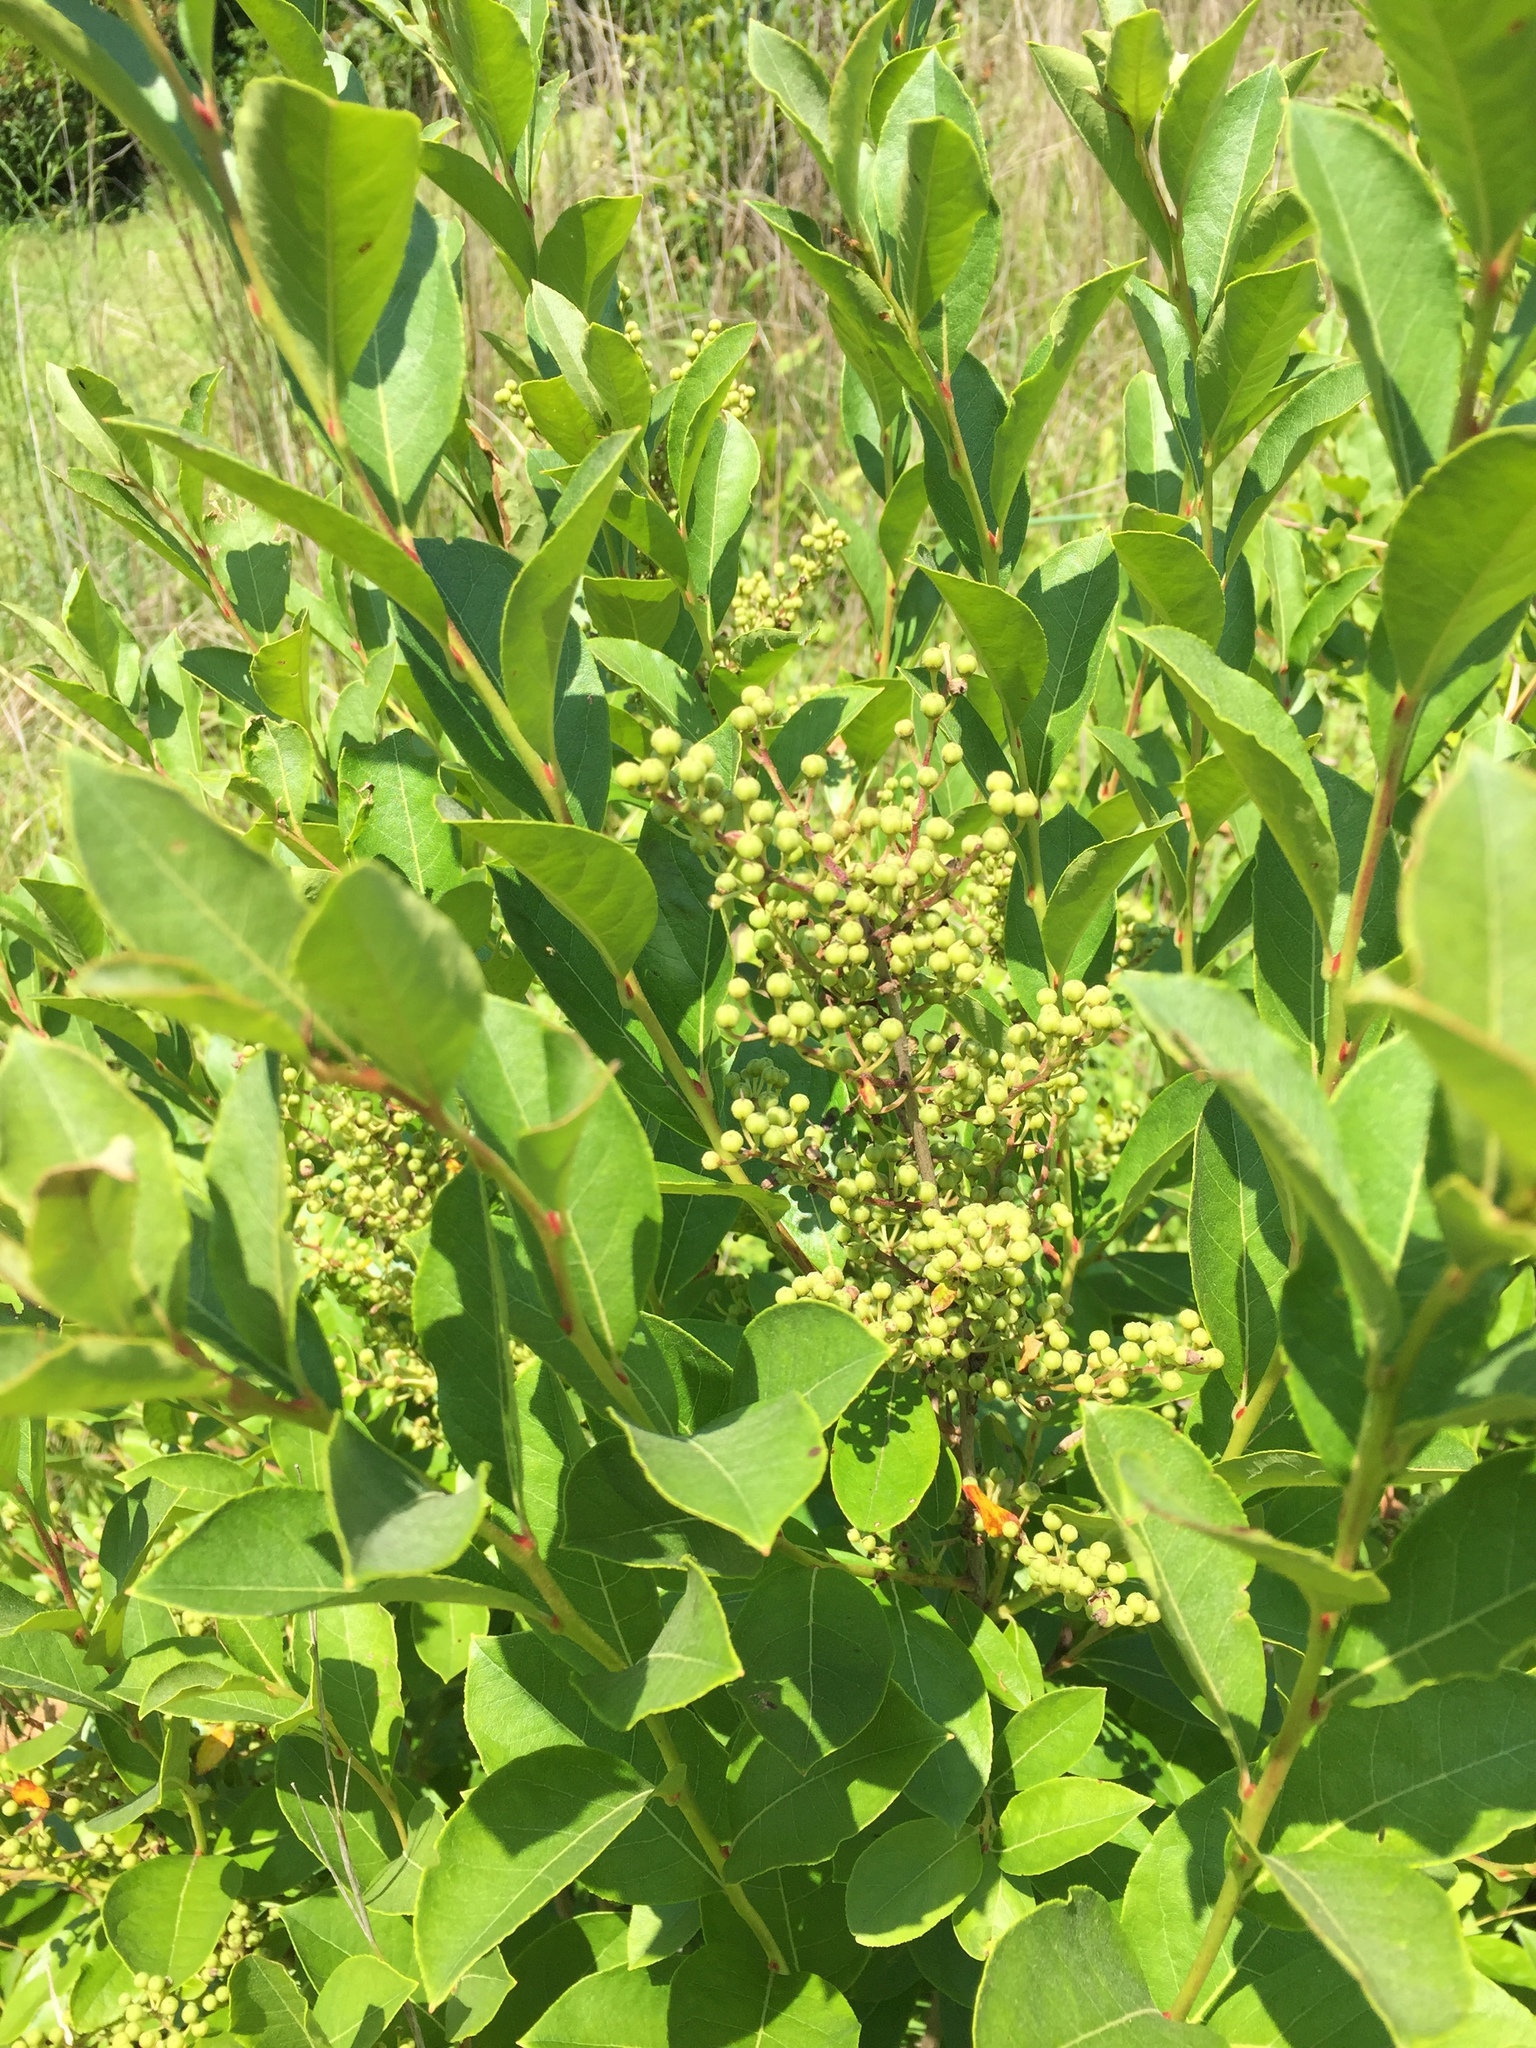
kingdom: Plantae
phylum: Tracheophyta
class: Magnoliopsida
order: Ericales
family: Ericaceae
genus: Lyonia
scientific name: Lyonia ligustrina
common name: Maleberry
